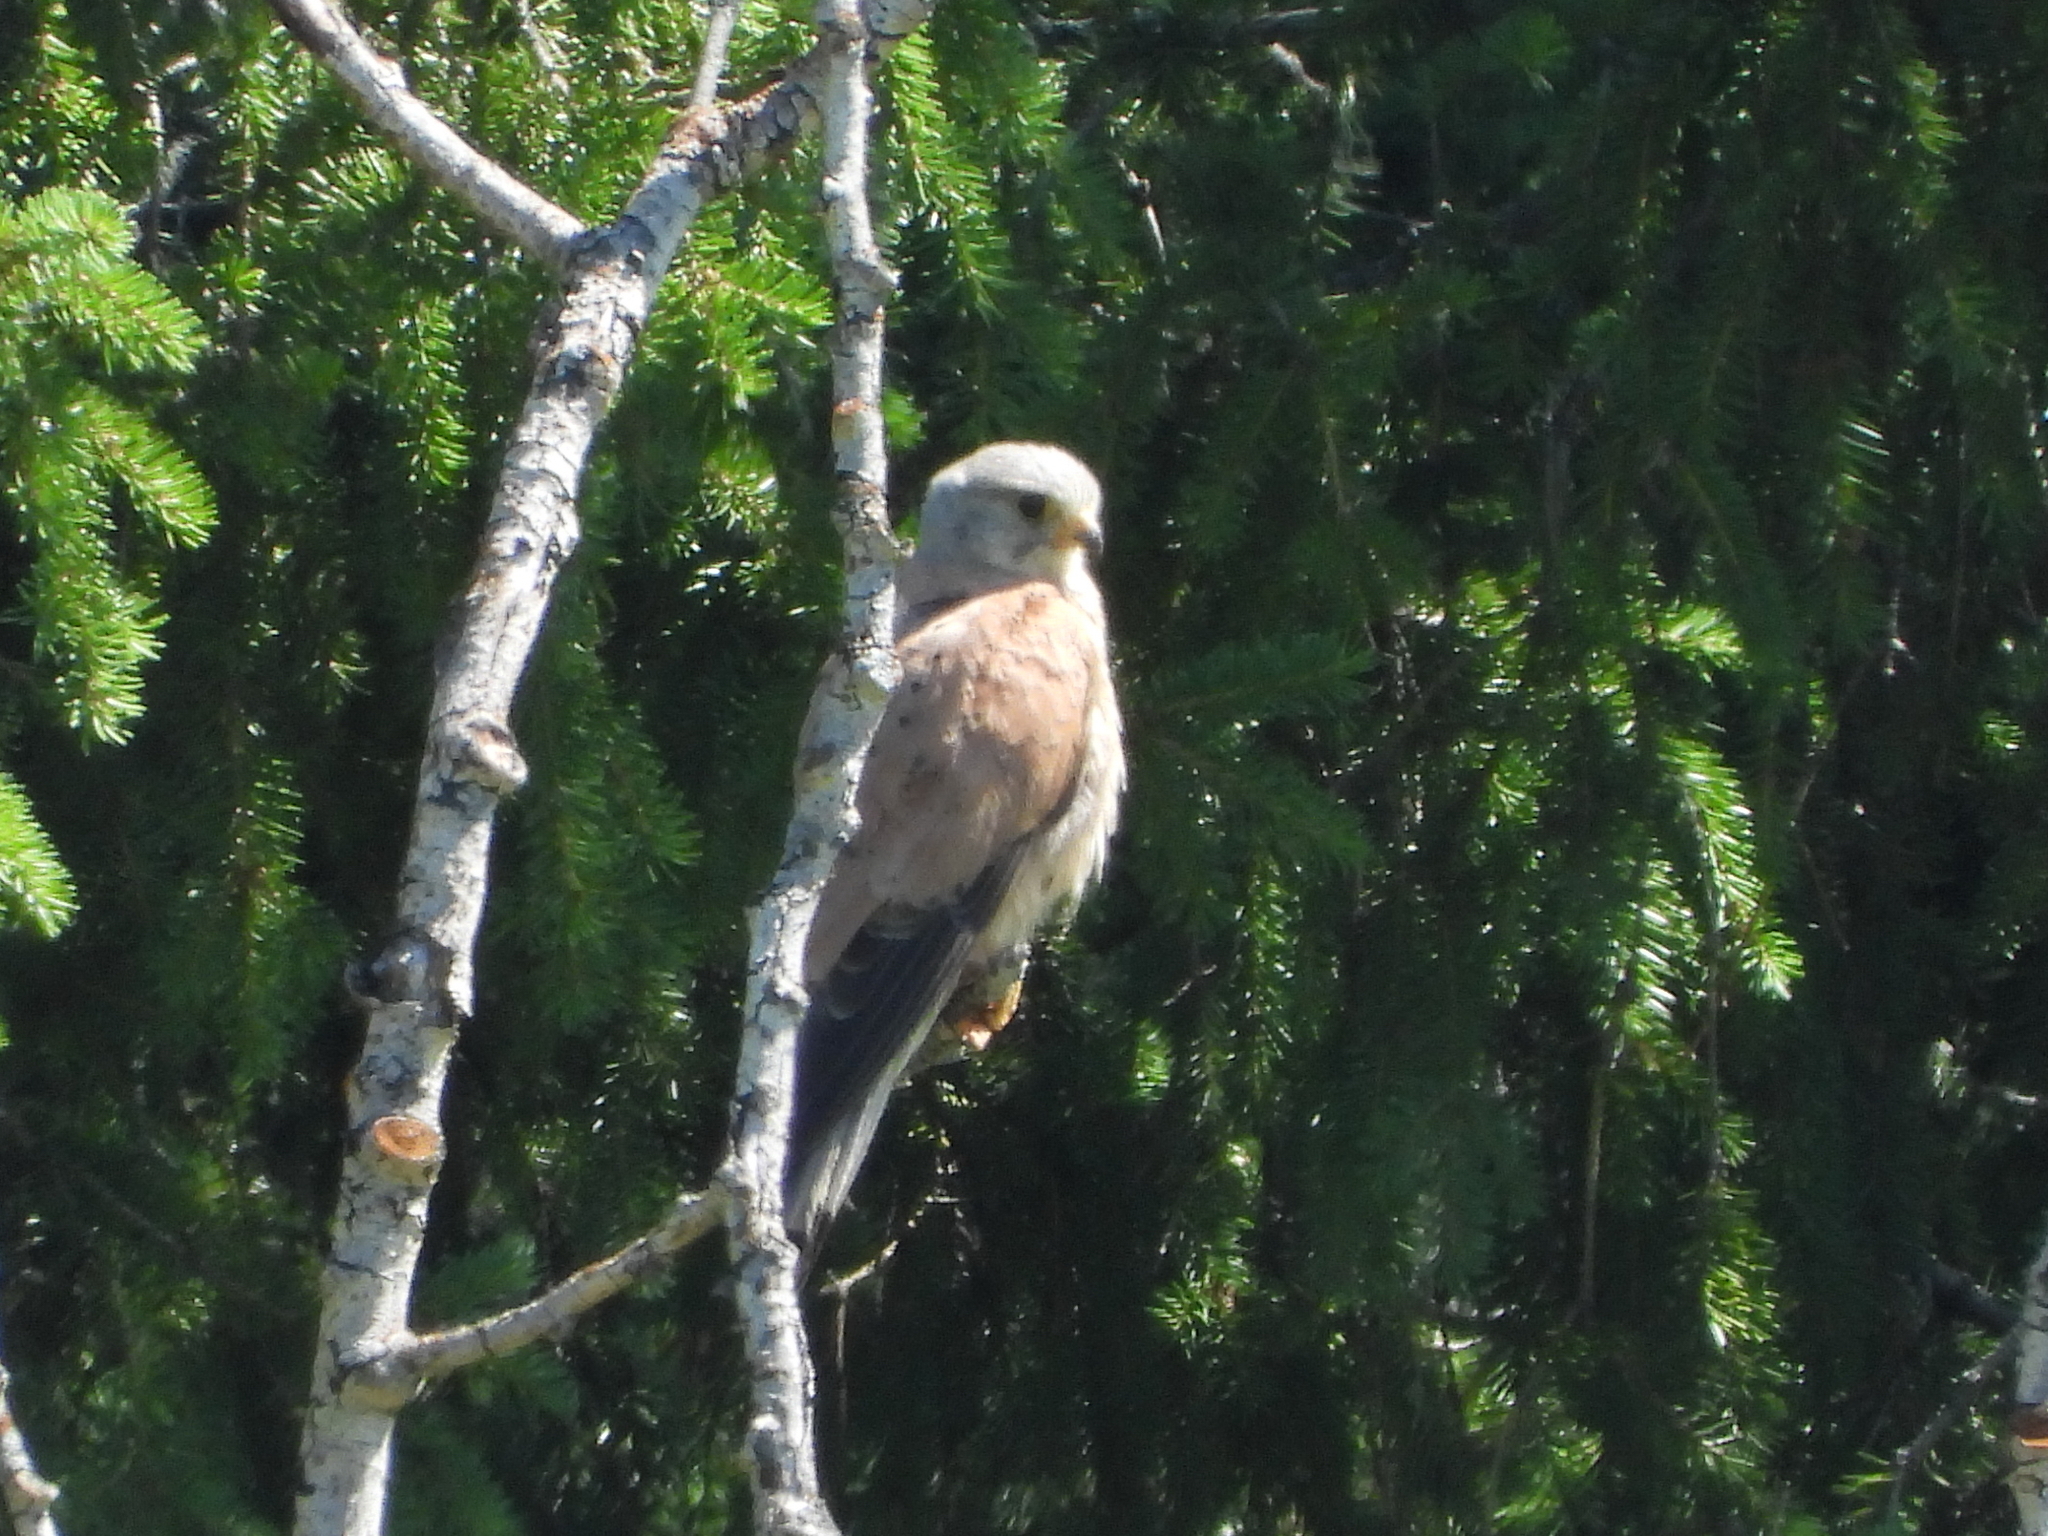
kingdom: Animalia
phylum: Chordata
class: Aves
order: Falconiformes
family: Falconidae
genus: Falco
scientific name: Falco tinnunculus
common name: Common kestrel
